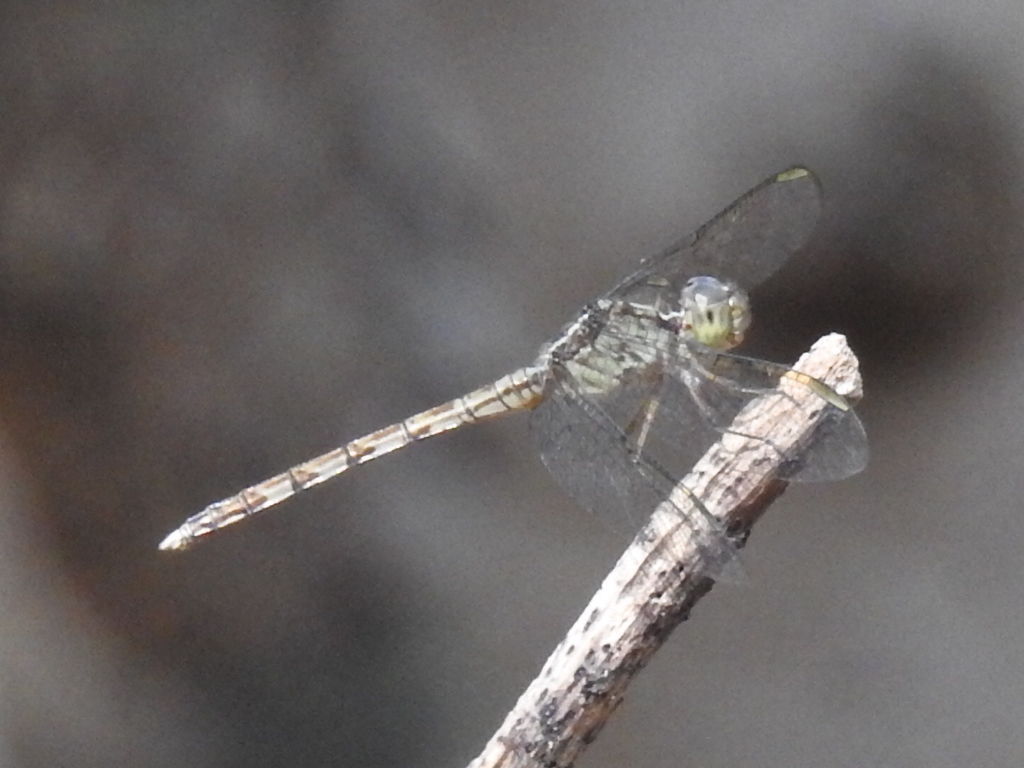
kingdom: Animalia
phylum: Arthropoda
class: Insecta
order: Odonata
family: Libellulidae
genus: Erythrodiplax
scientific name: Erythrodiplax umbrata
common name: Band-winged dragonlet
